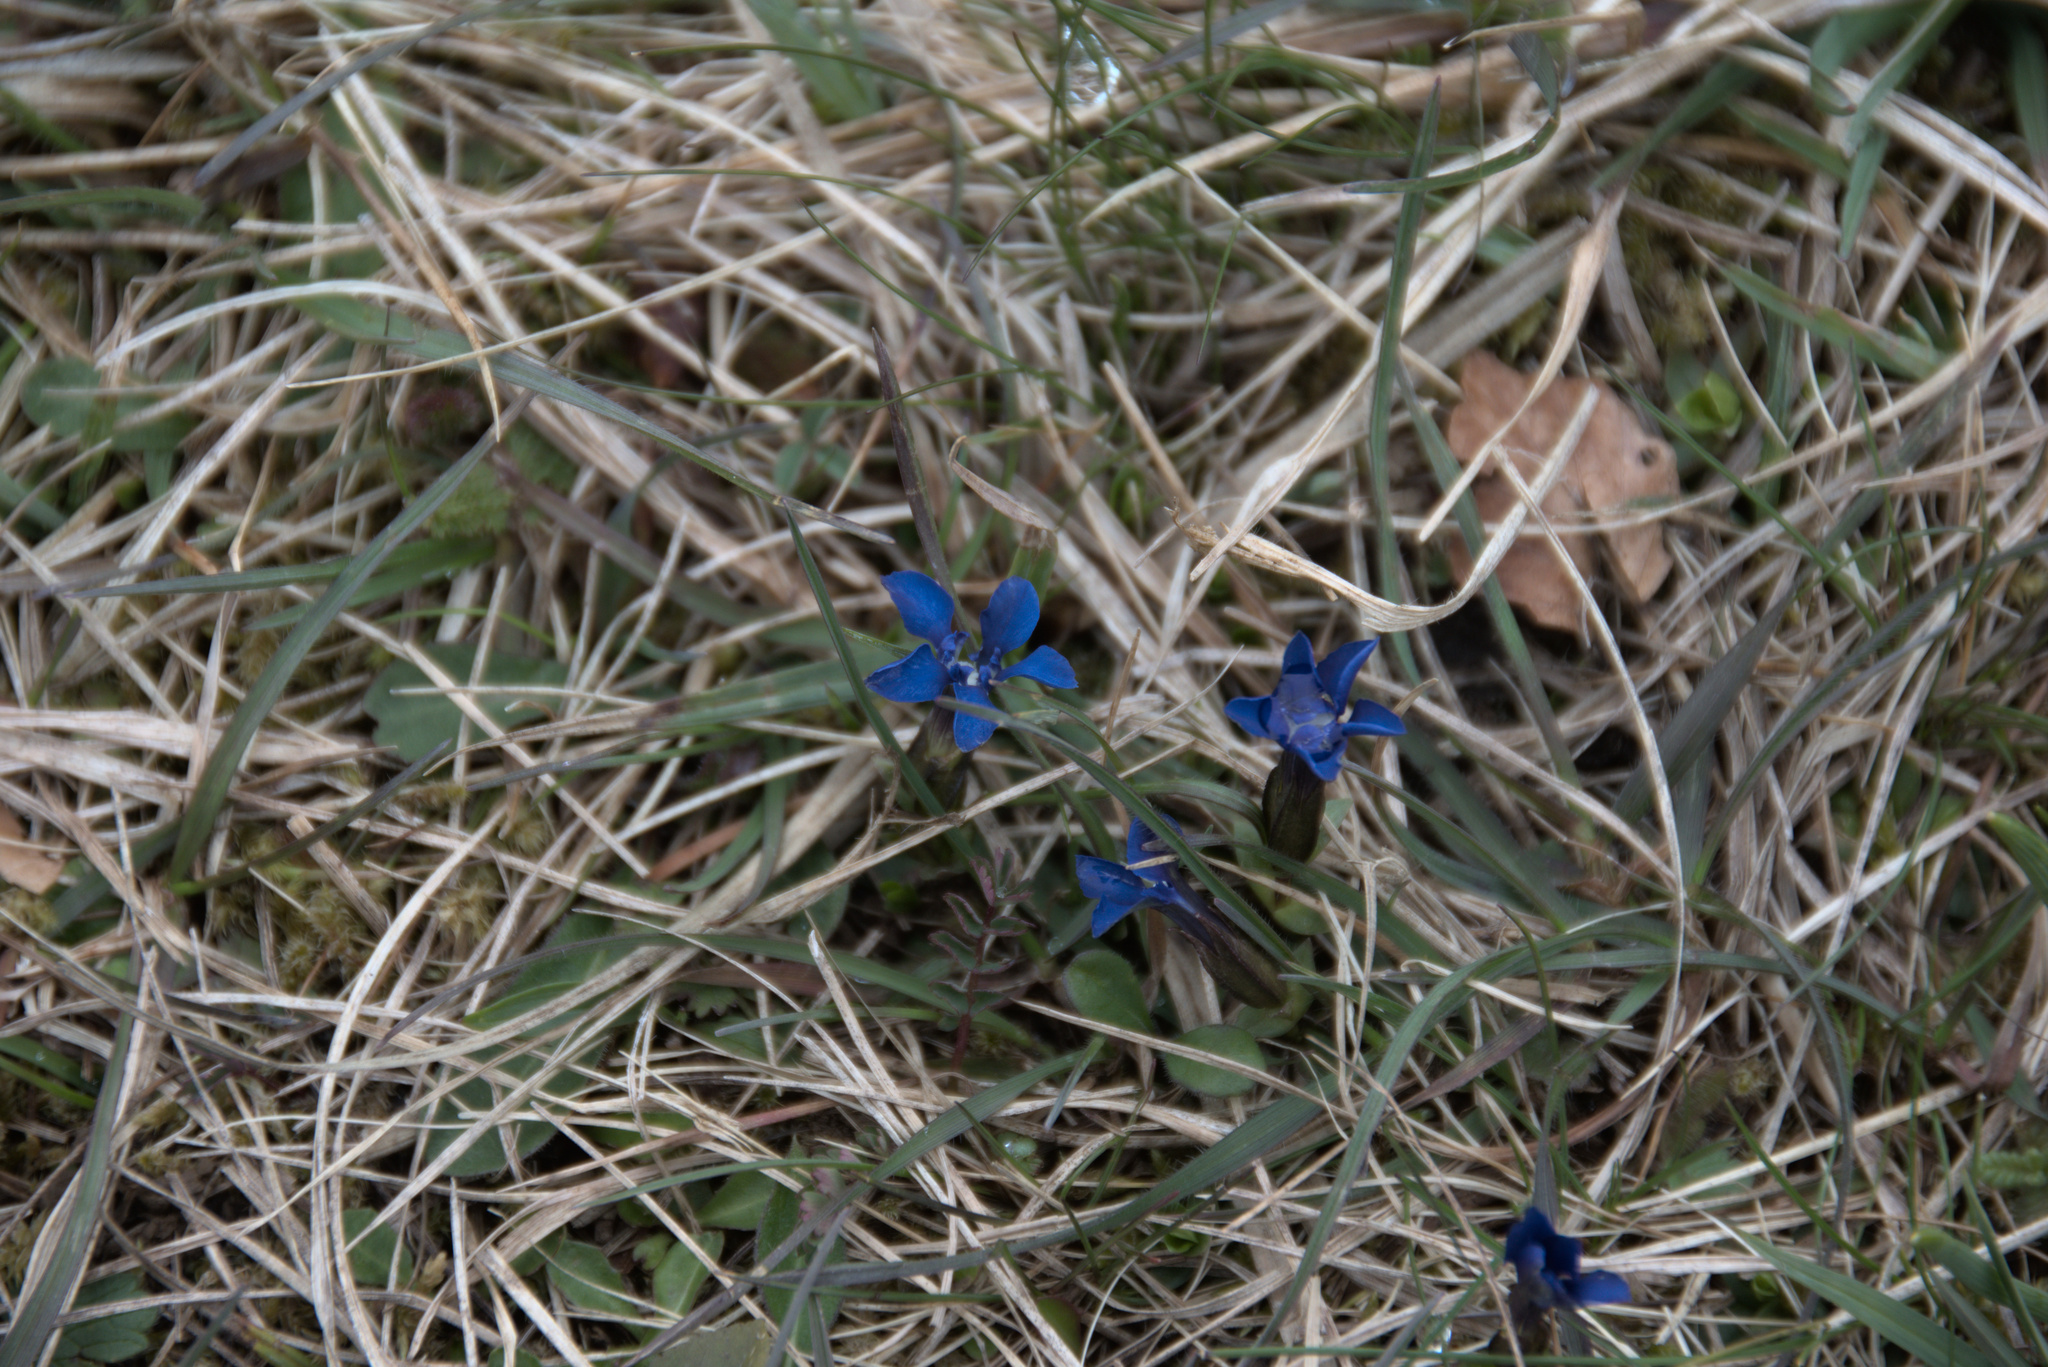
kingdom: Plantae
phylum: Tracheophyta
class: Magnoliopsida
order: Gentianales
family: Gentianaceae
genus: Gentiana
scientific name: Gentiana verna
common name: Spring gentian
